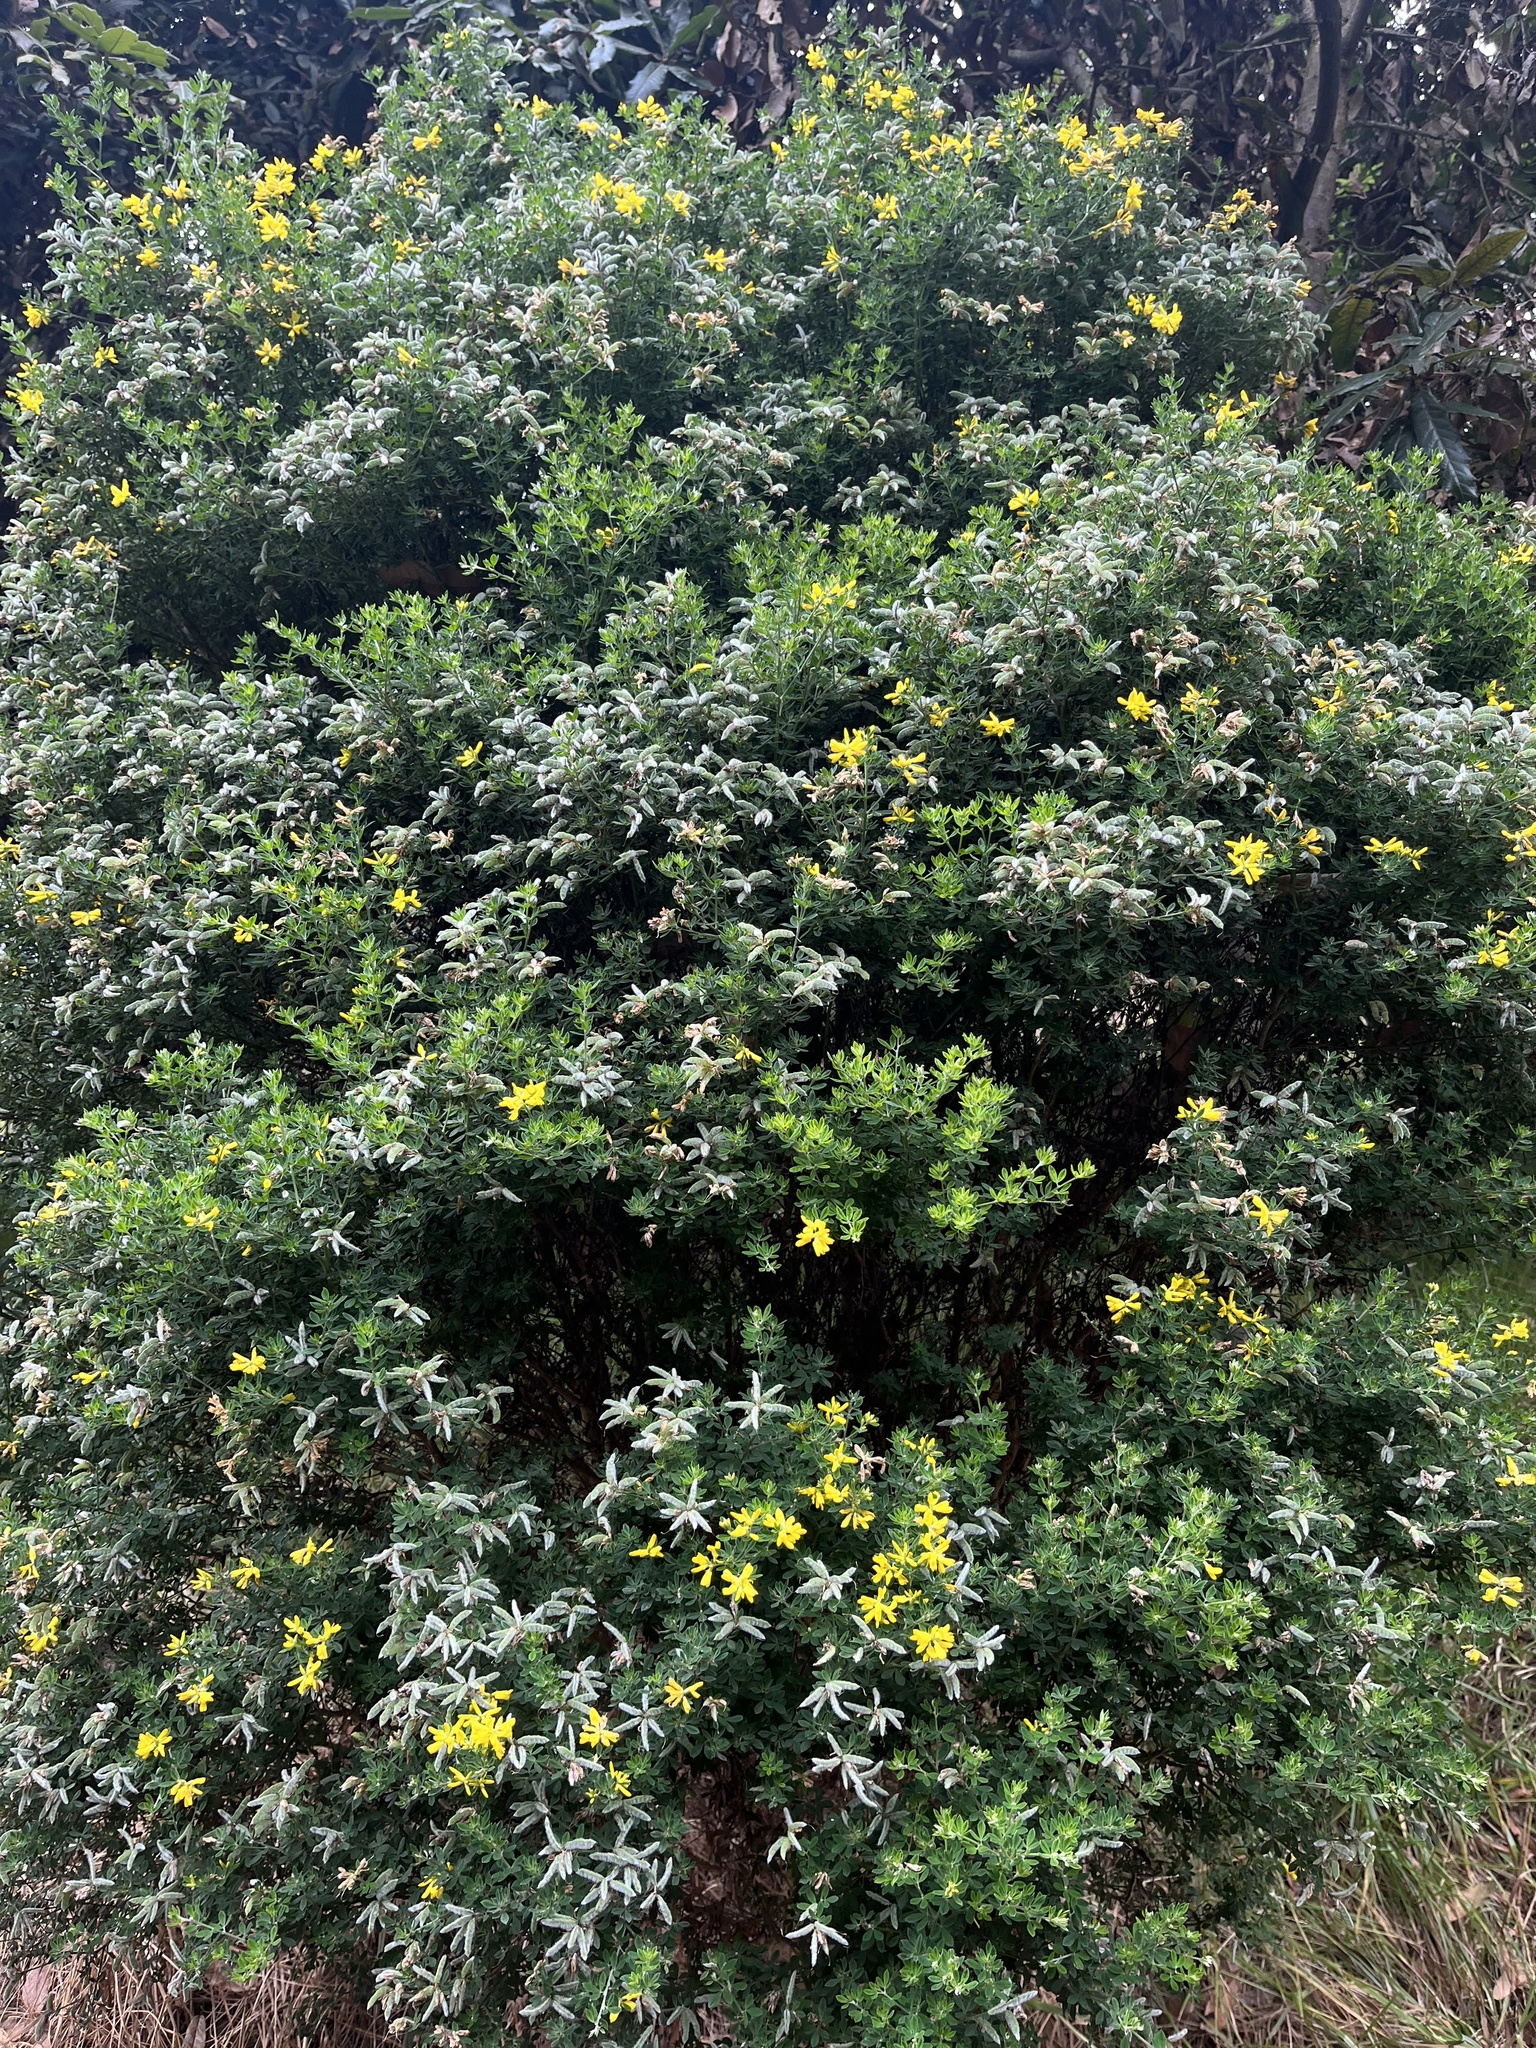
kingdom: Plantae
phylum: Tracheophyta
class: Magnoliopsida
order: Fabales
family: Fabaceae
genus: Genista
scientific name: Genista monspessulana
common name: Montpellier broom
